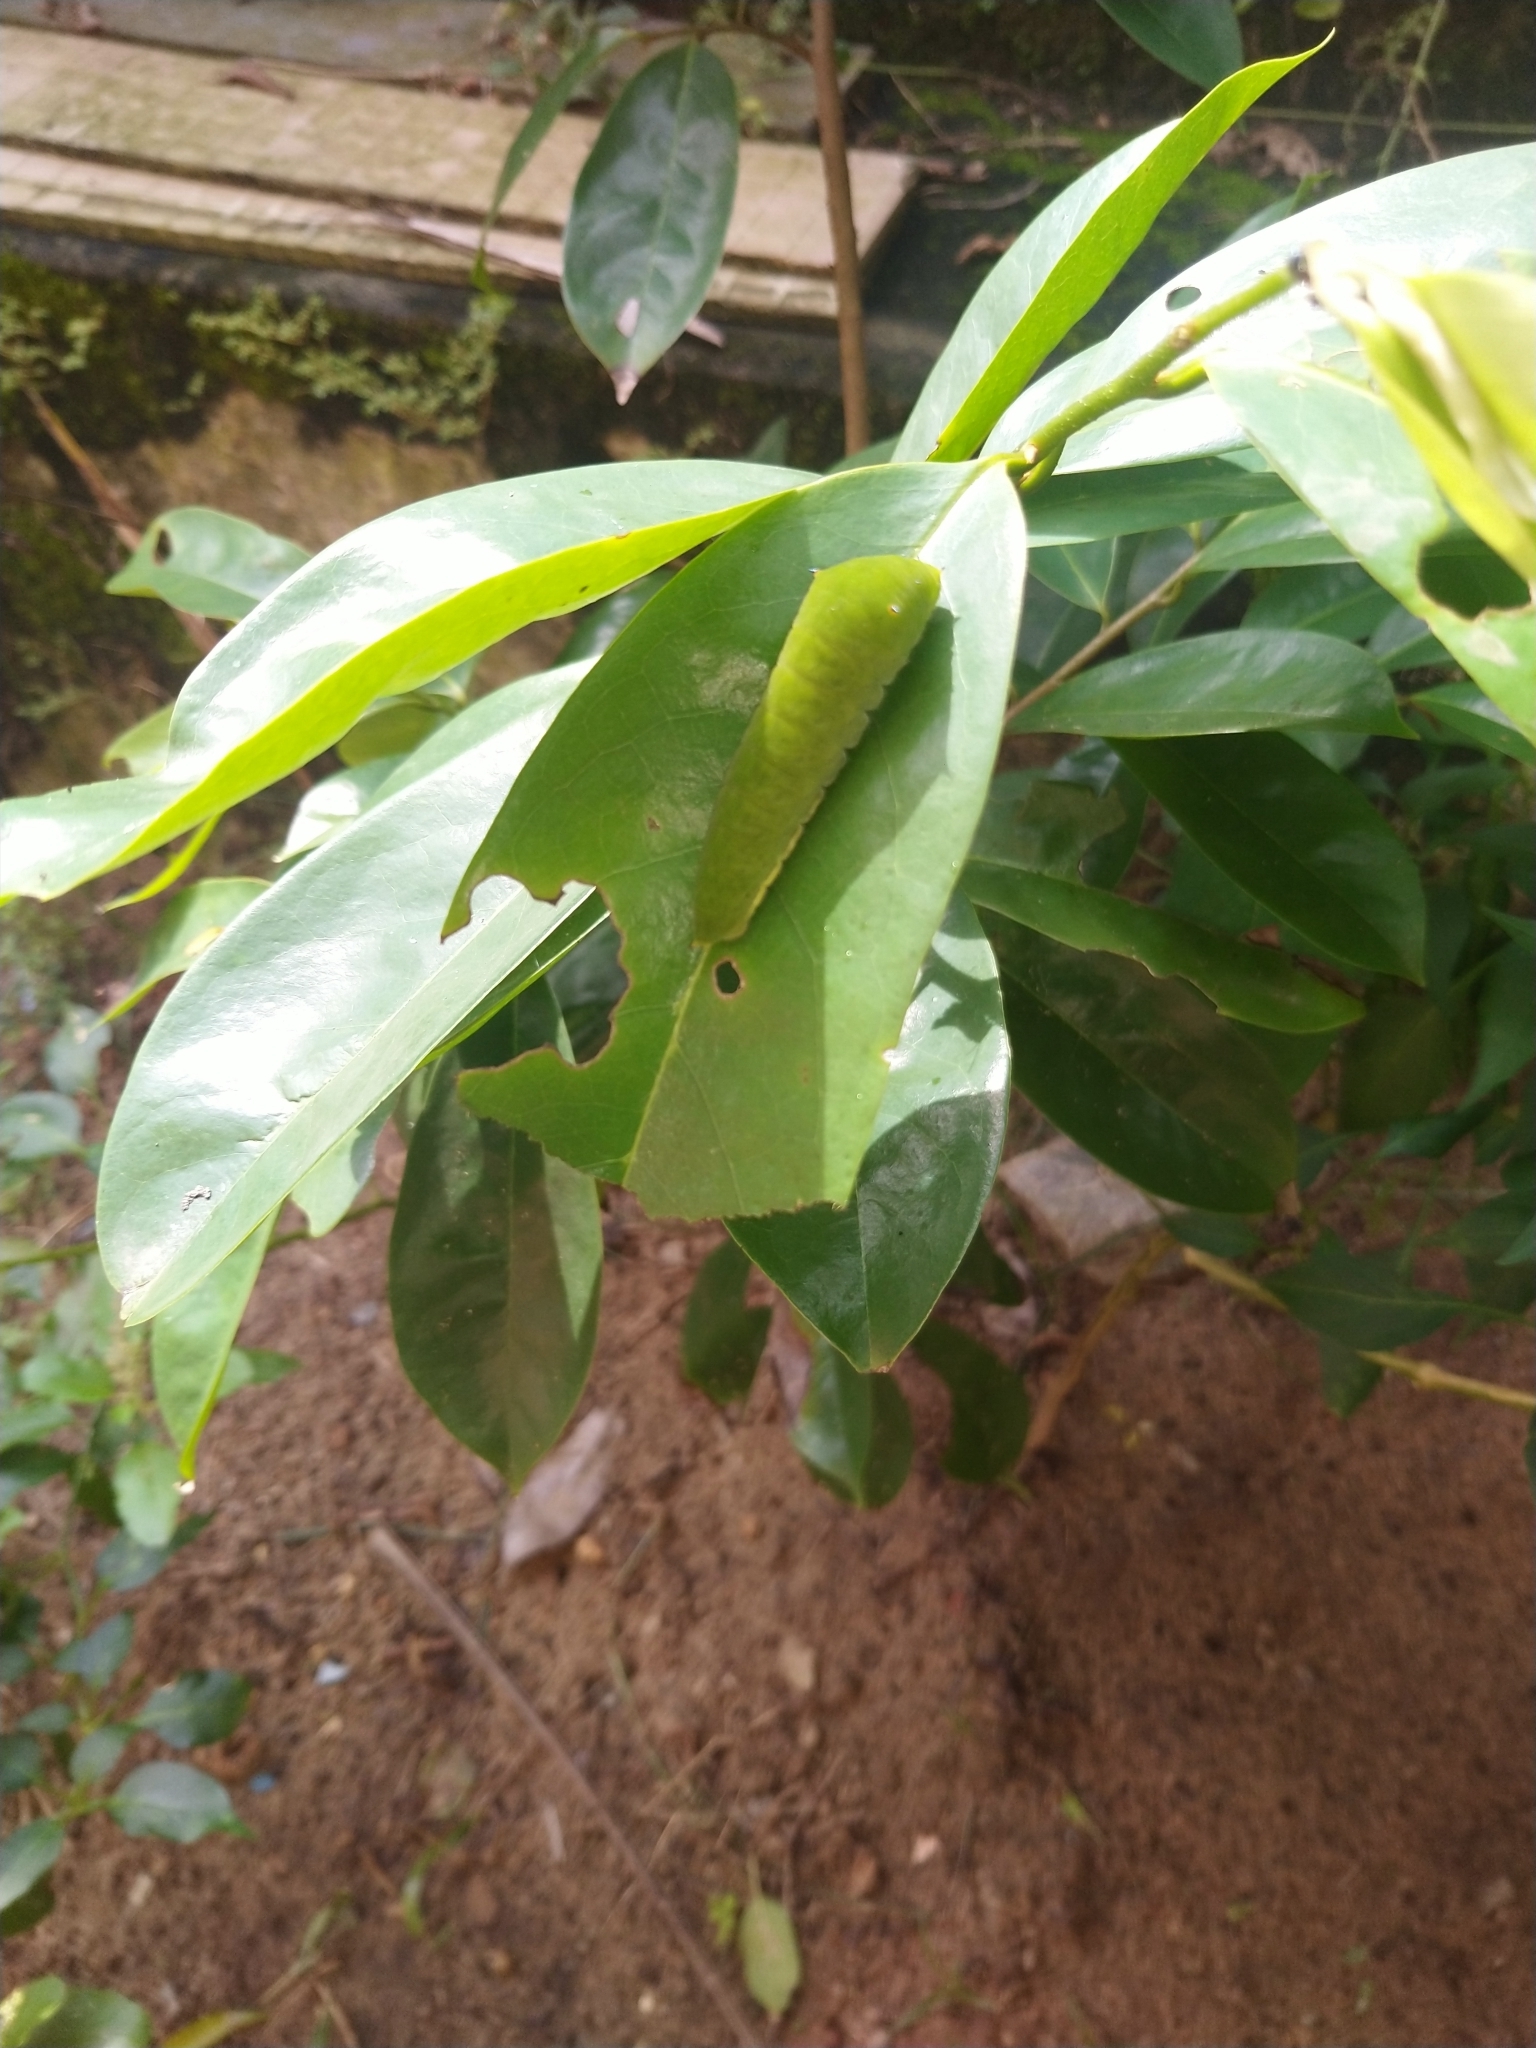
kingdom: Animalia
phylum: Arthropoda
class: Insecta
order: Lepidoptera
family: Papilionidae
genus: Graphium
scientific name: Graphium agamemnon
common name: Tailed jay
